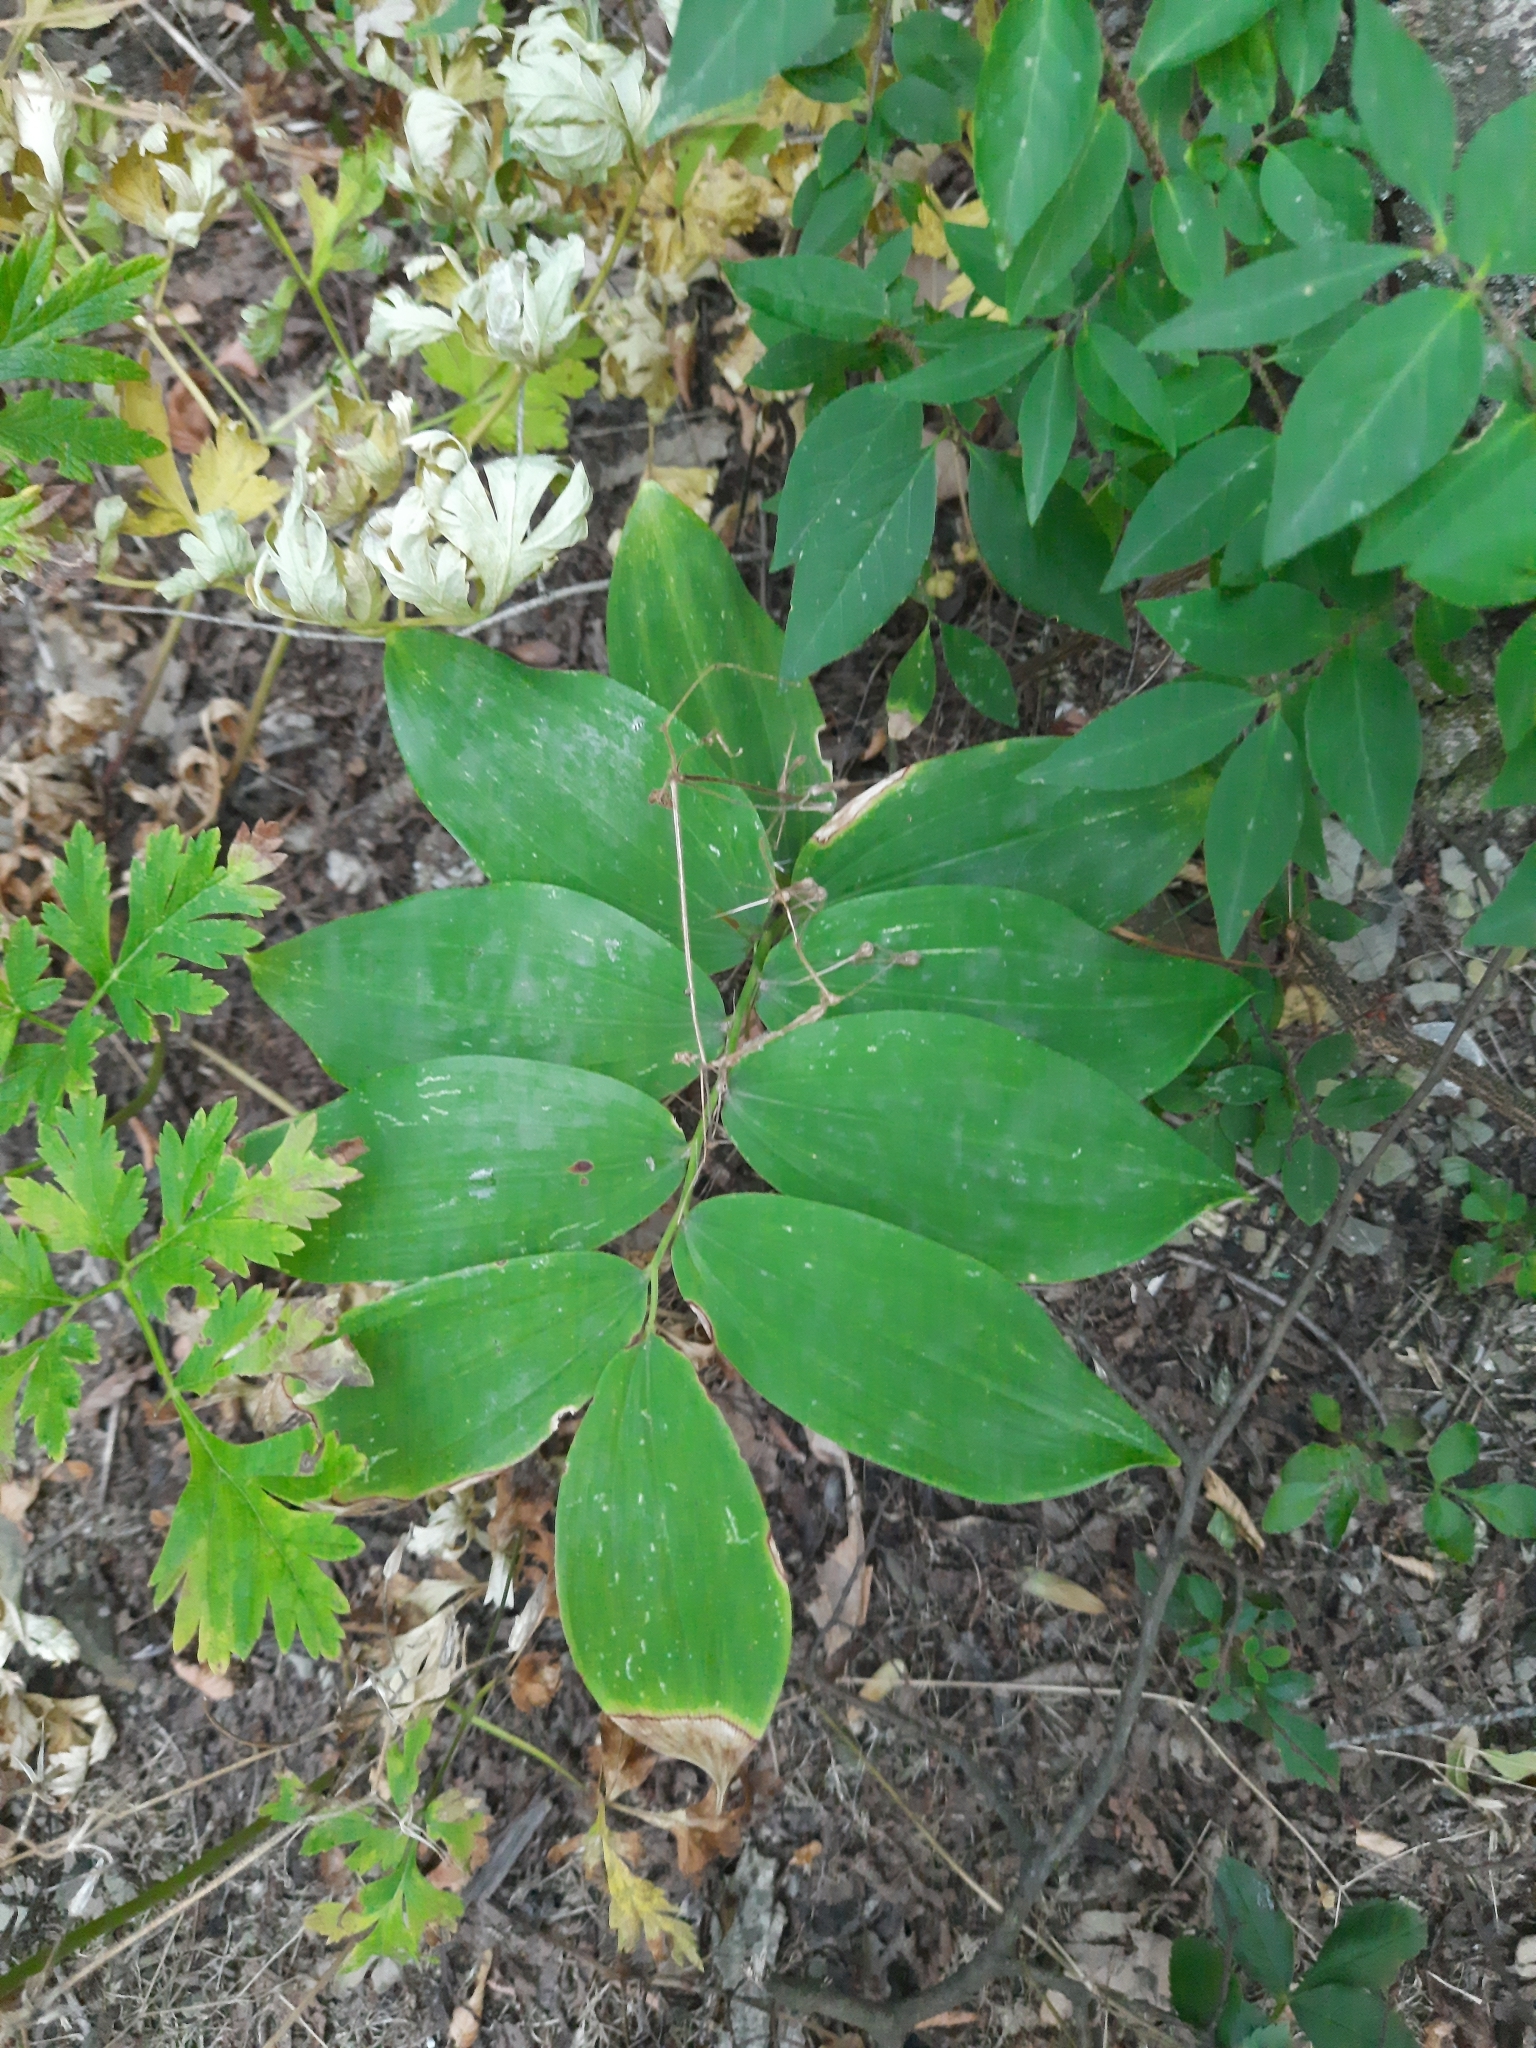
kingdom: Plantae
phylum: Tracheophyta
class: Liliopsida
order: Asparagales
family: Asparagaceae
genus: Polygonatum
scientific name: Polygonatum glaberrimum
